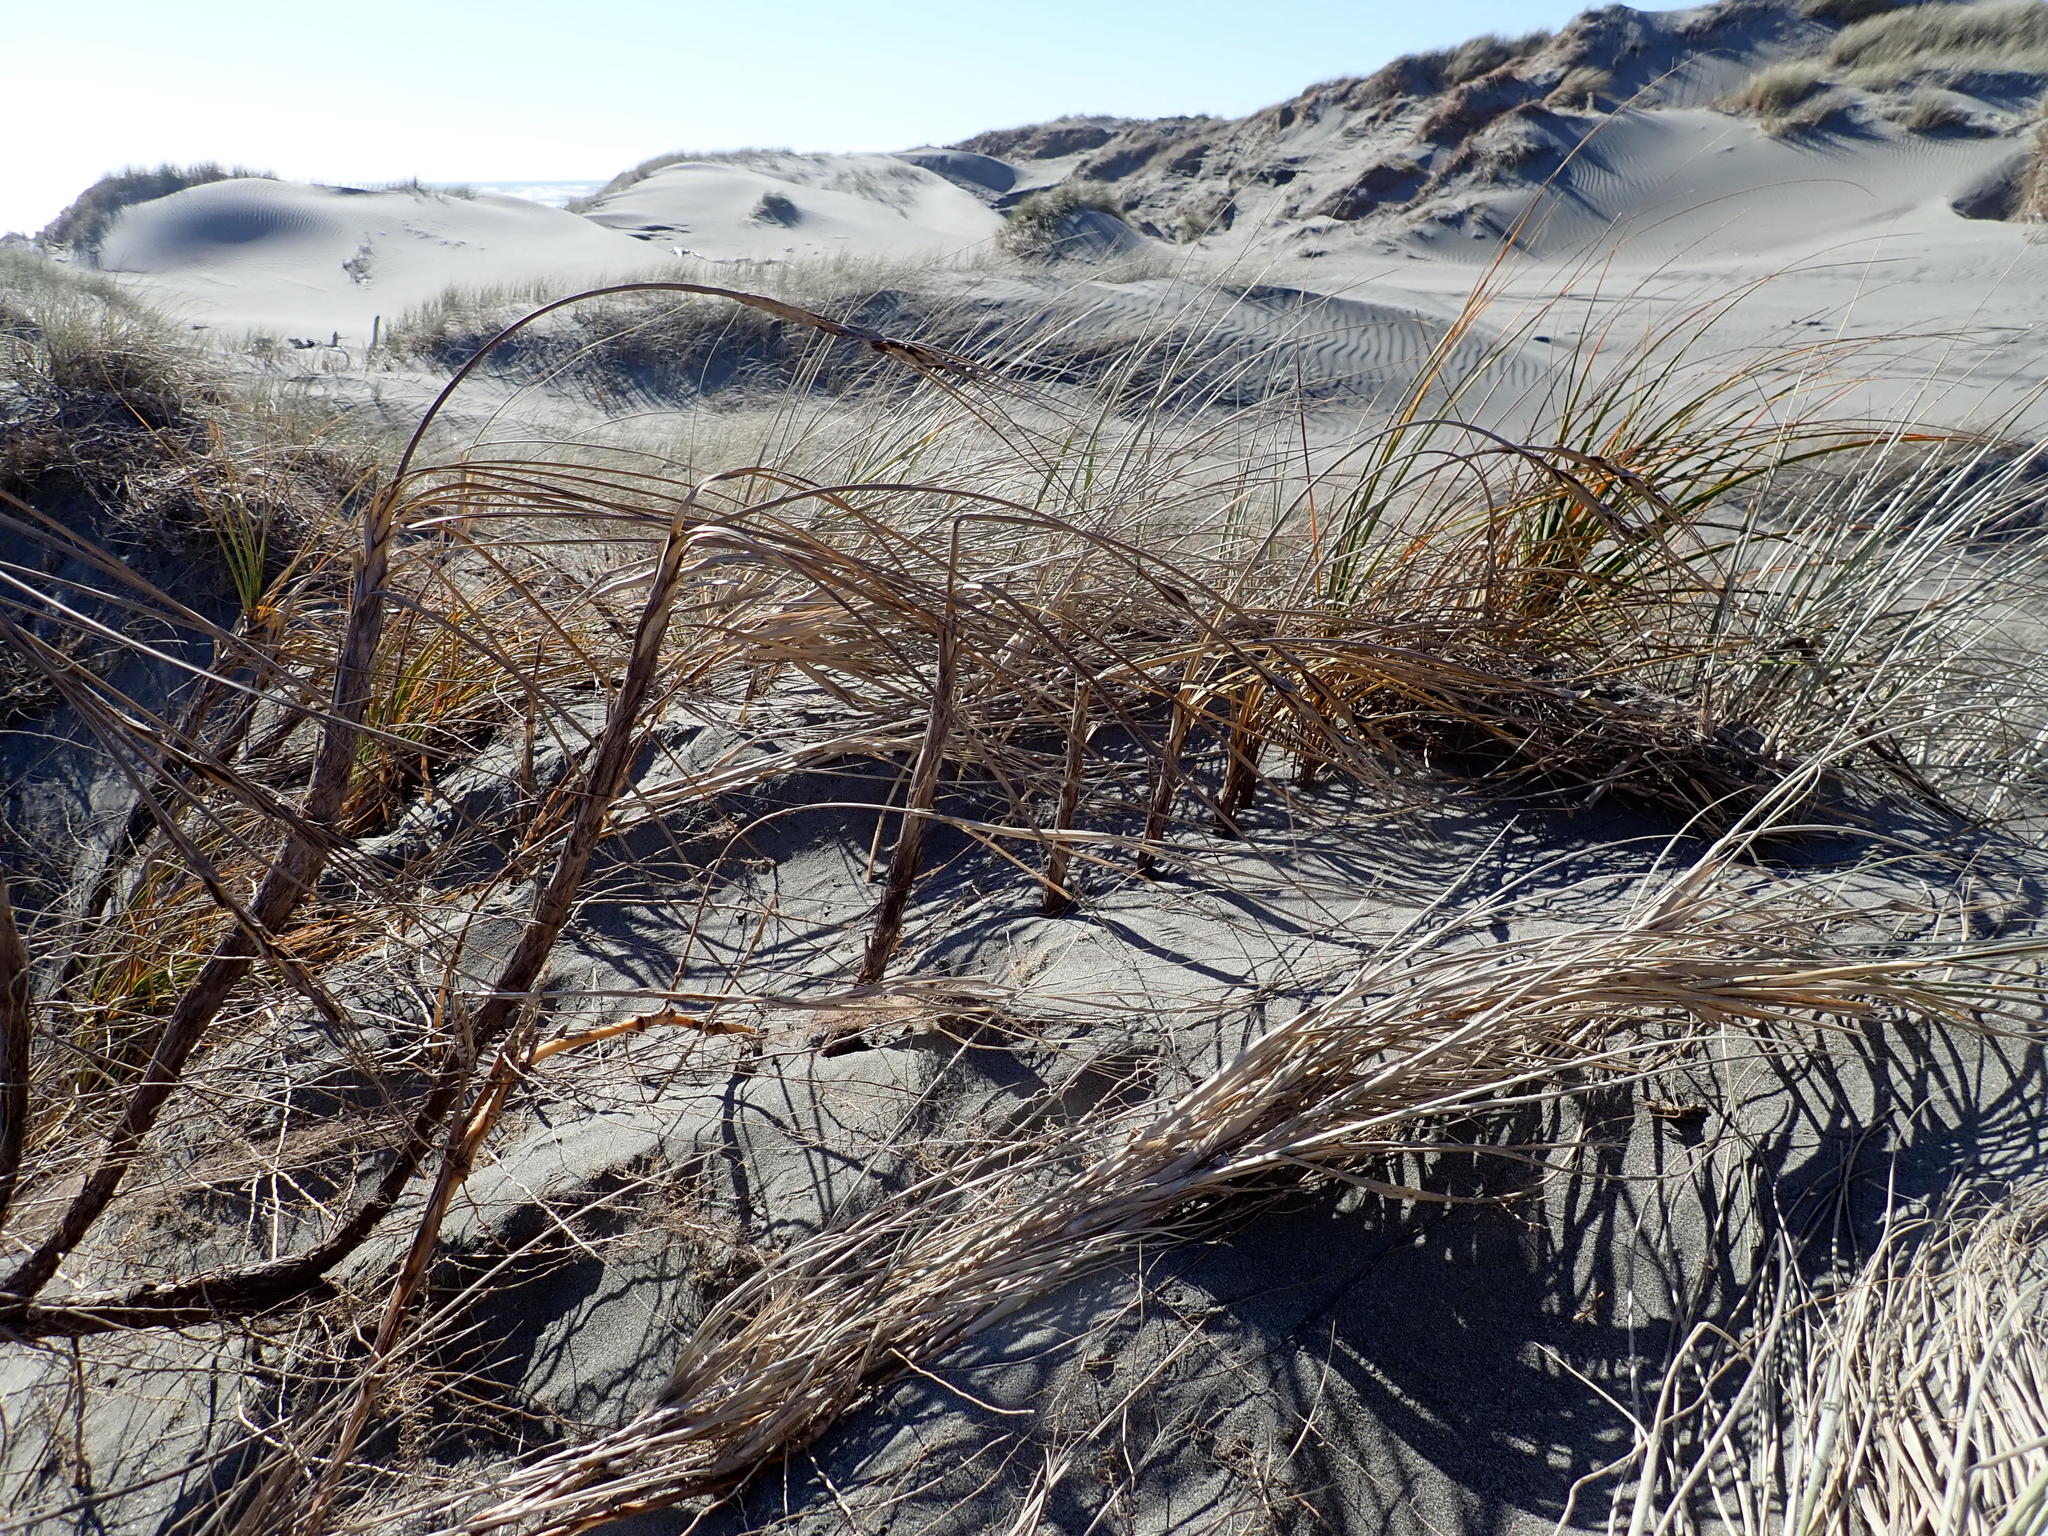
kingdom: Plantae
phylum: Tracheophyta
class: Liliopsida
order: Poales
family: Cyperaceae
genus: Ficinia
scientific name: Ficinia spiralis
